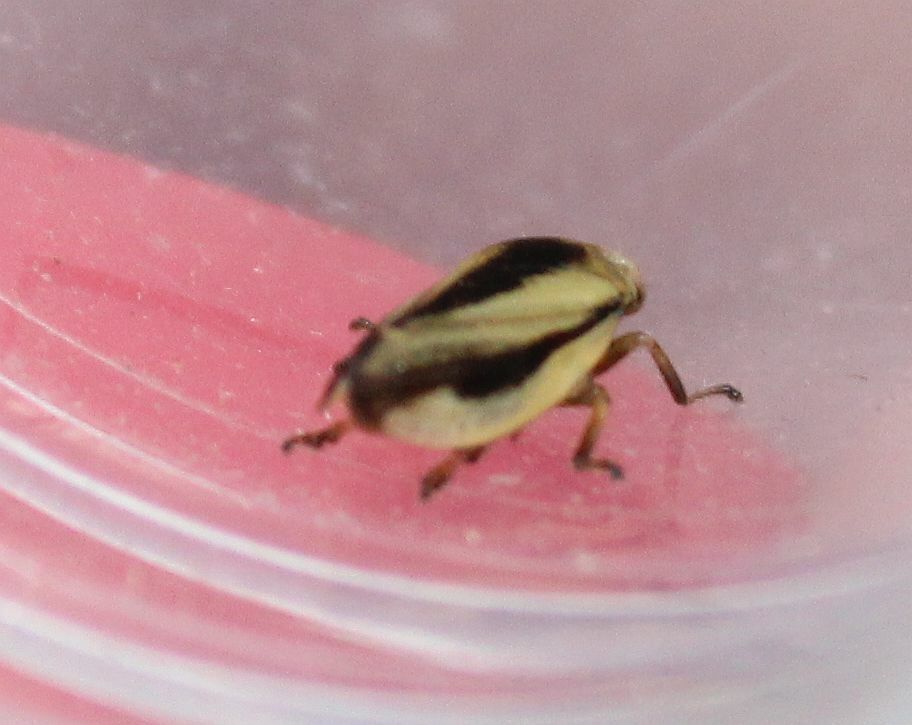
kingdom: Animalia
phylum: Arthropoda
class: Insecta
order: Hemiptera
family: Aphrophoridae
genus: Philaenus
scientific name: Philaenus spumarius
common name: Meadow spittlebug
